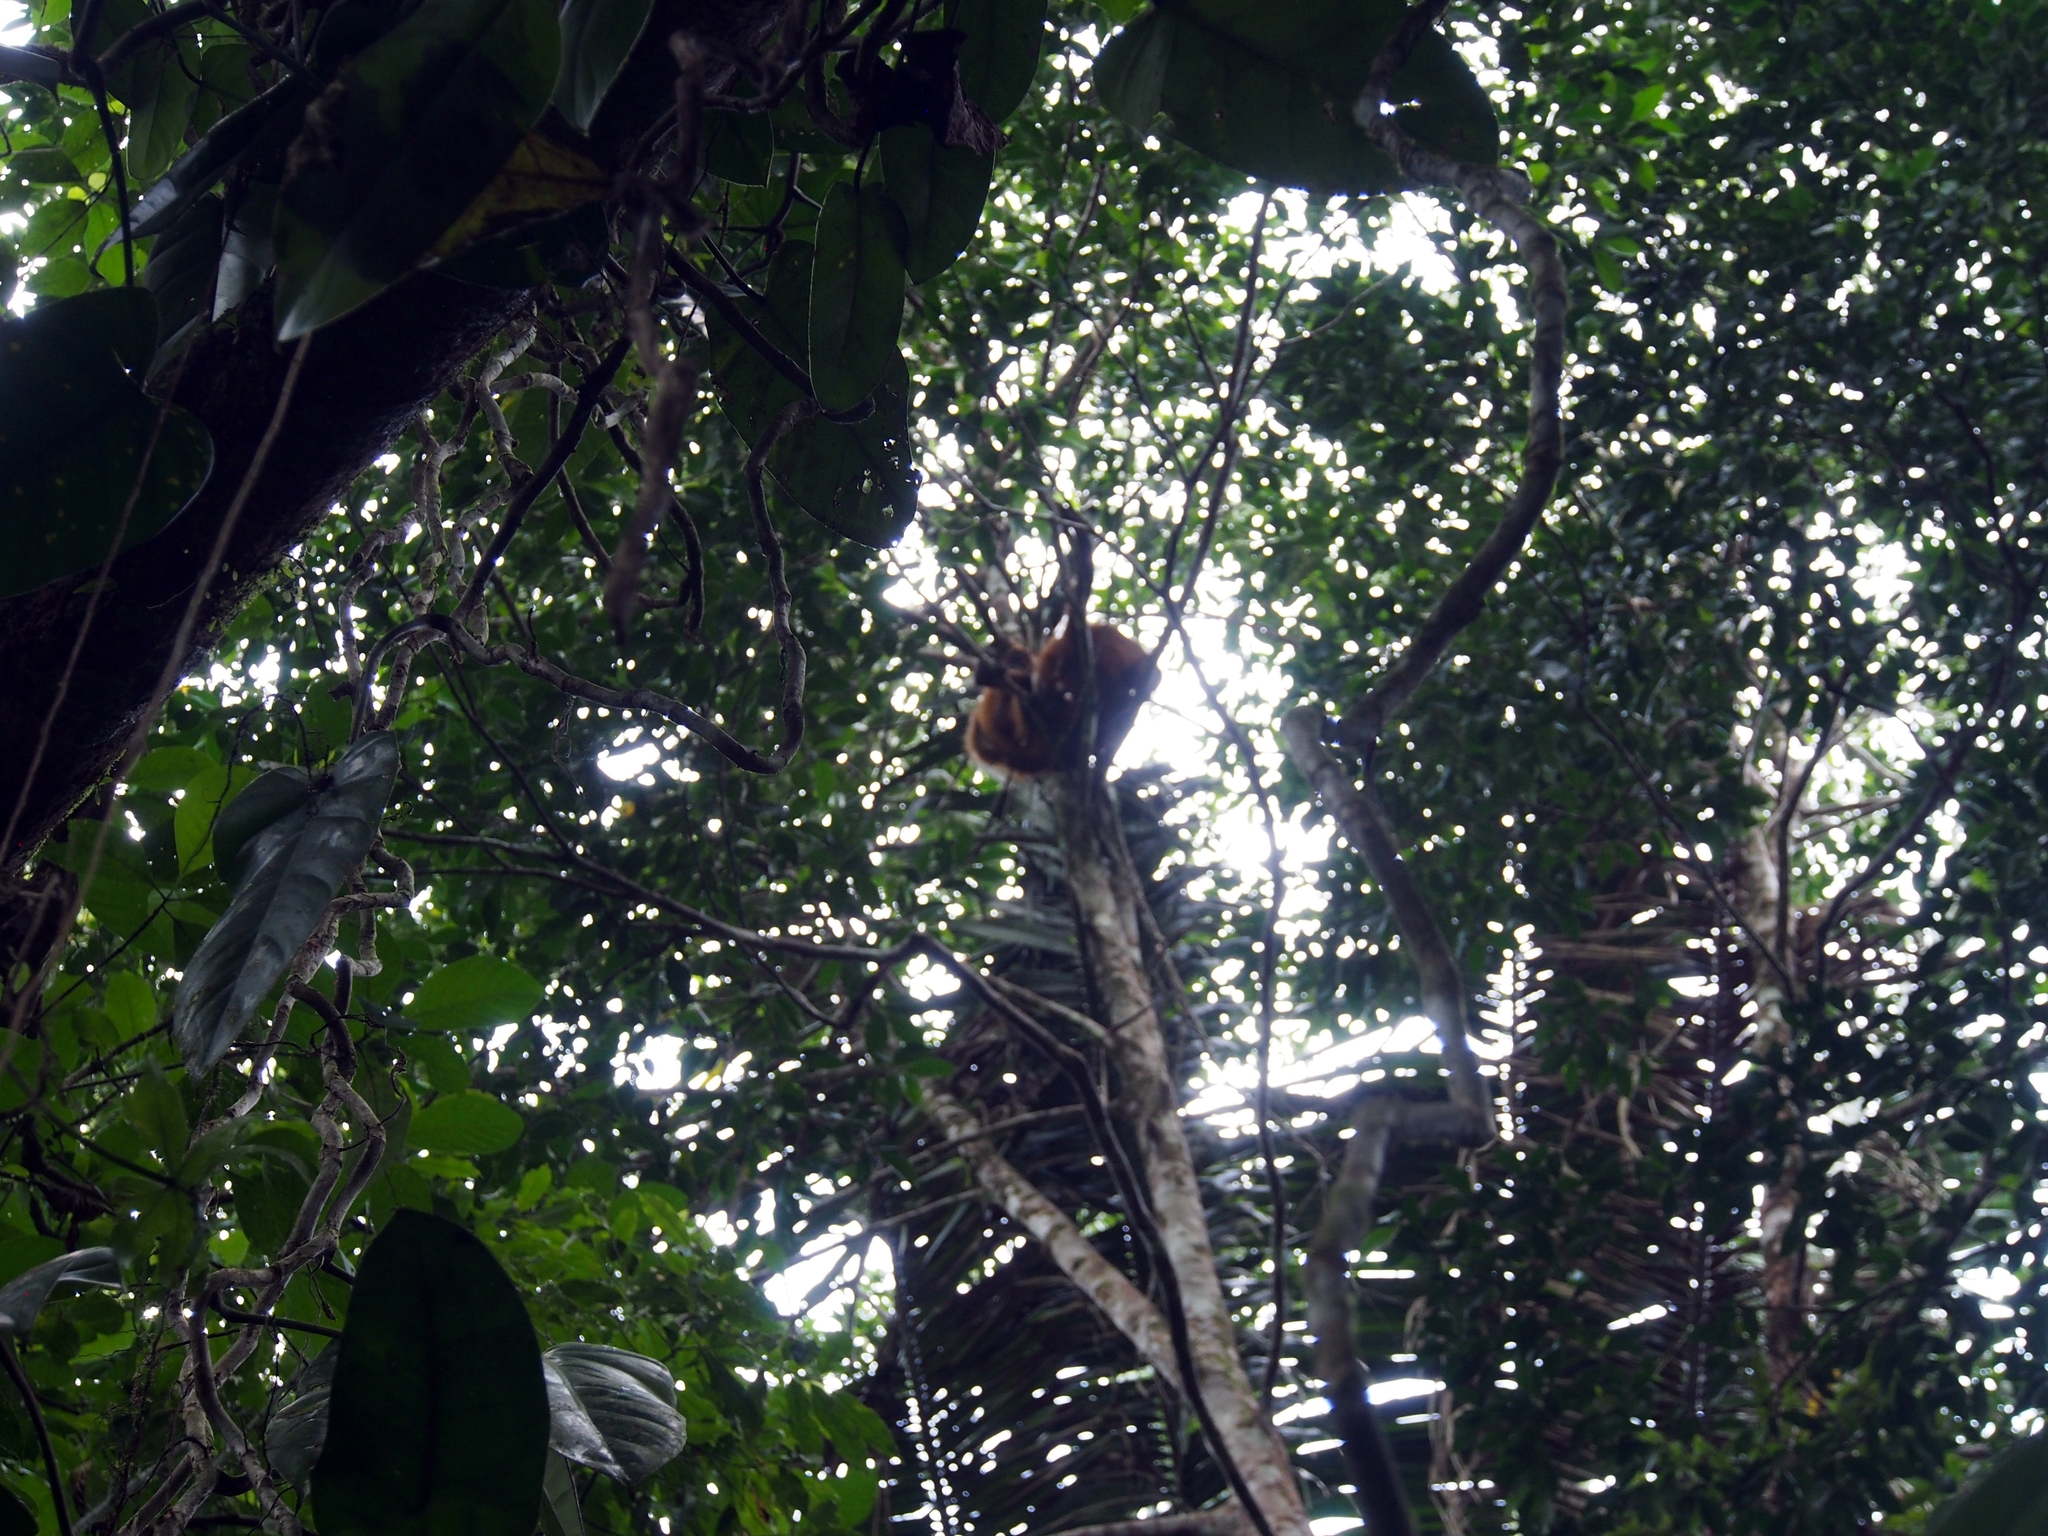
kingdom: Animalia
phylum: Chordata
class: Mammalia
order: Primates
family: Atelidae
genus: Ateles
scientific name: Ateles geoffroyi
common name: Black-handed spider monkey
